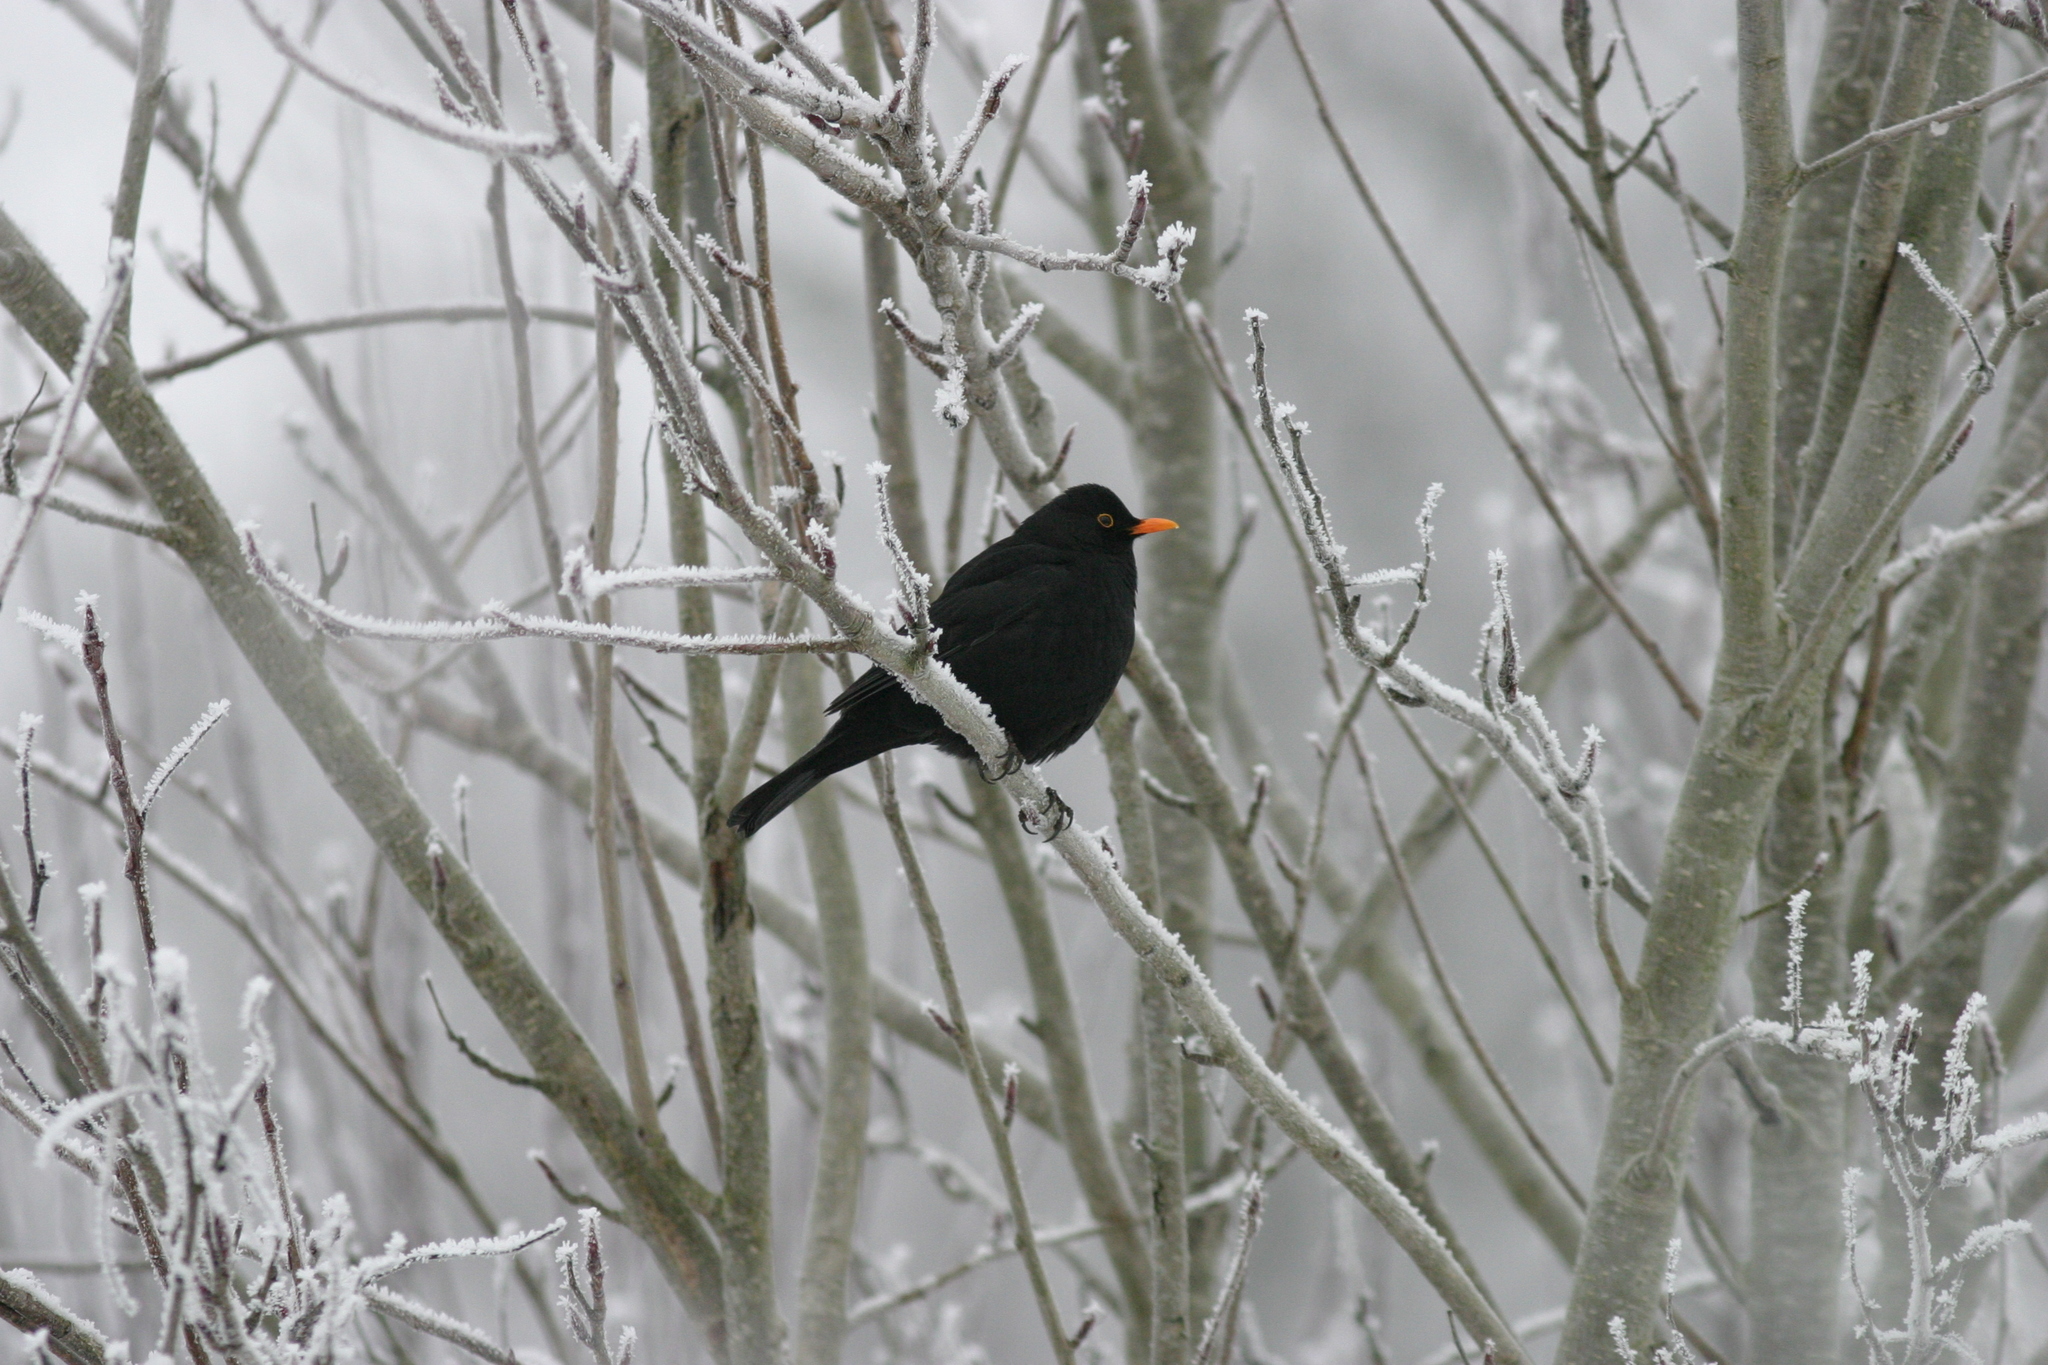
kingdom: Animalia
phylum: Chordata
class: Aves
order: Passeriformes
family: Turdidae
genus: Turdus
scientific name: Turdus merula
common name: Common blackbird
